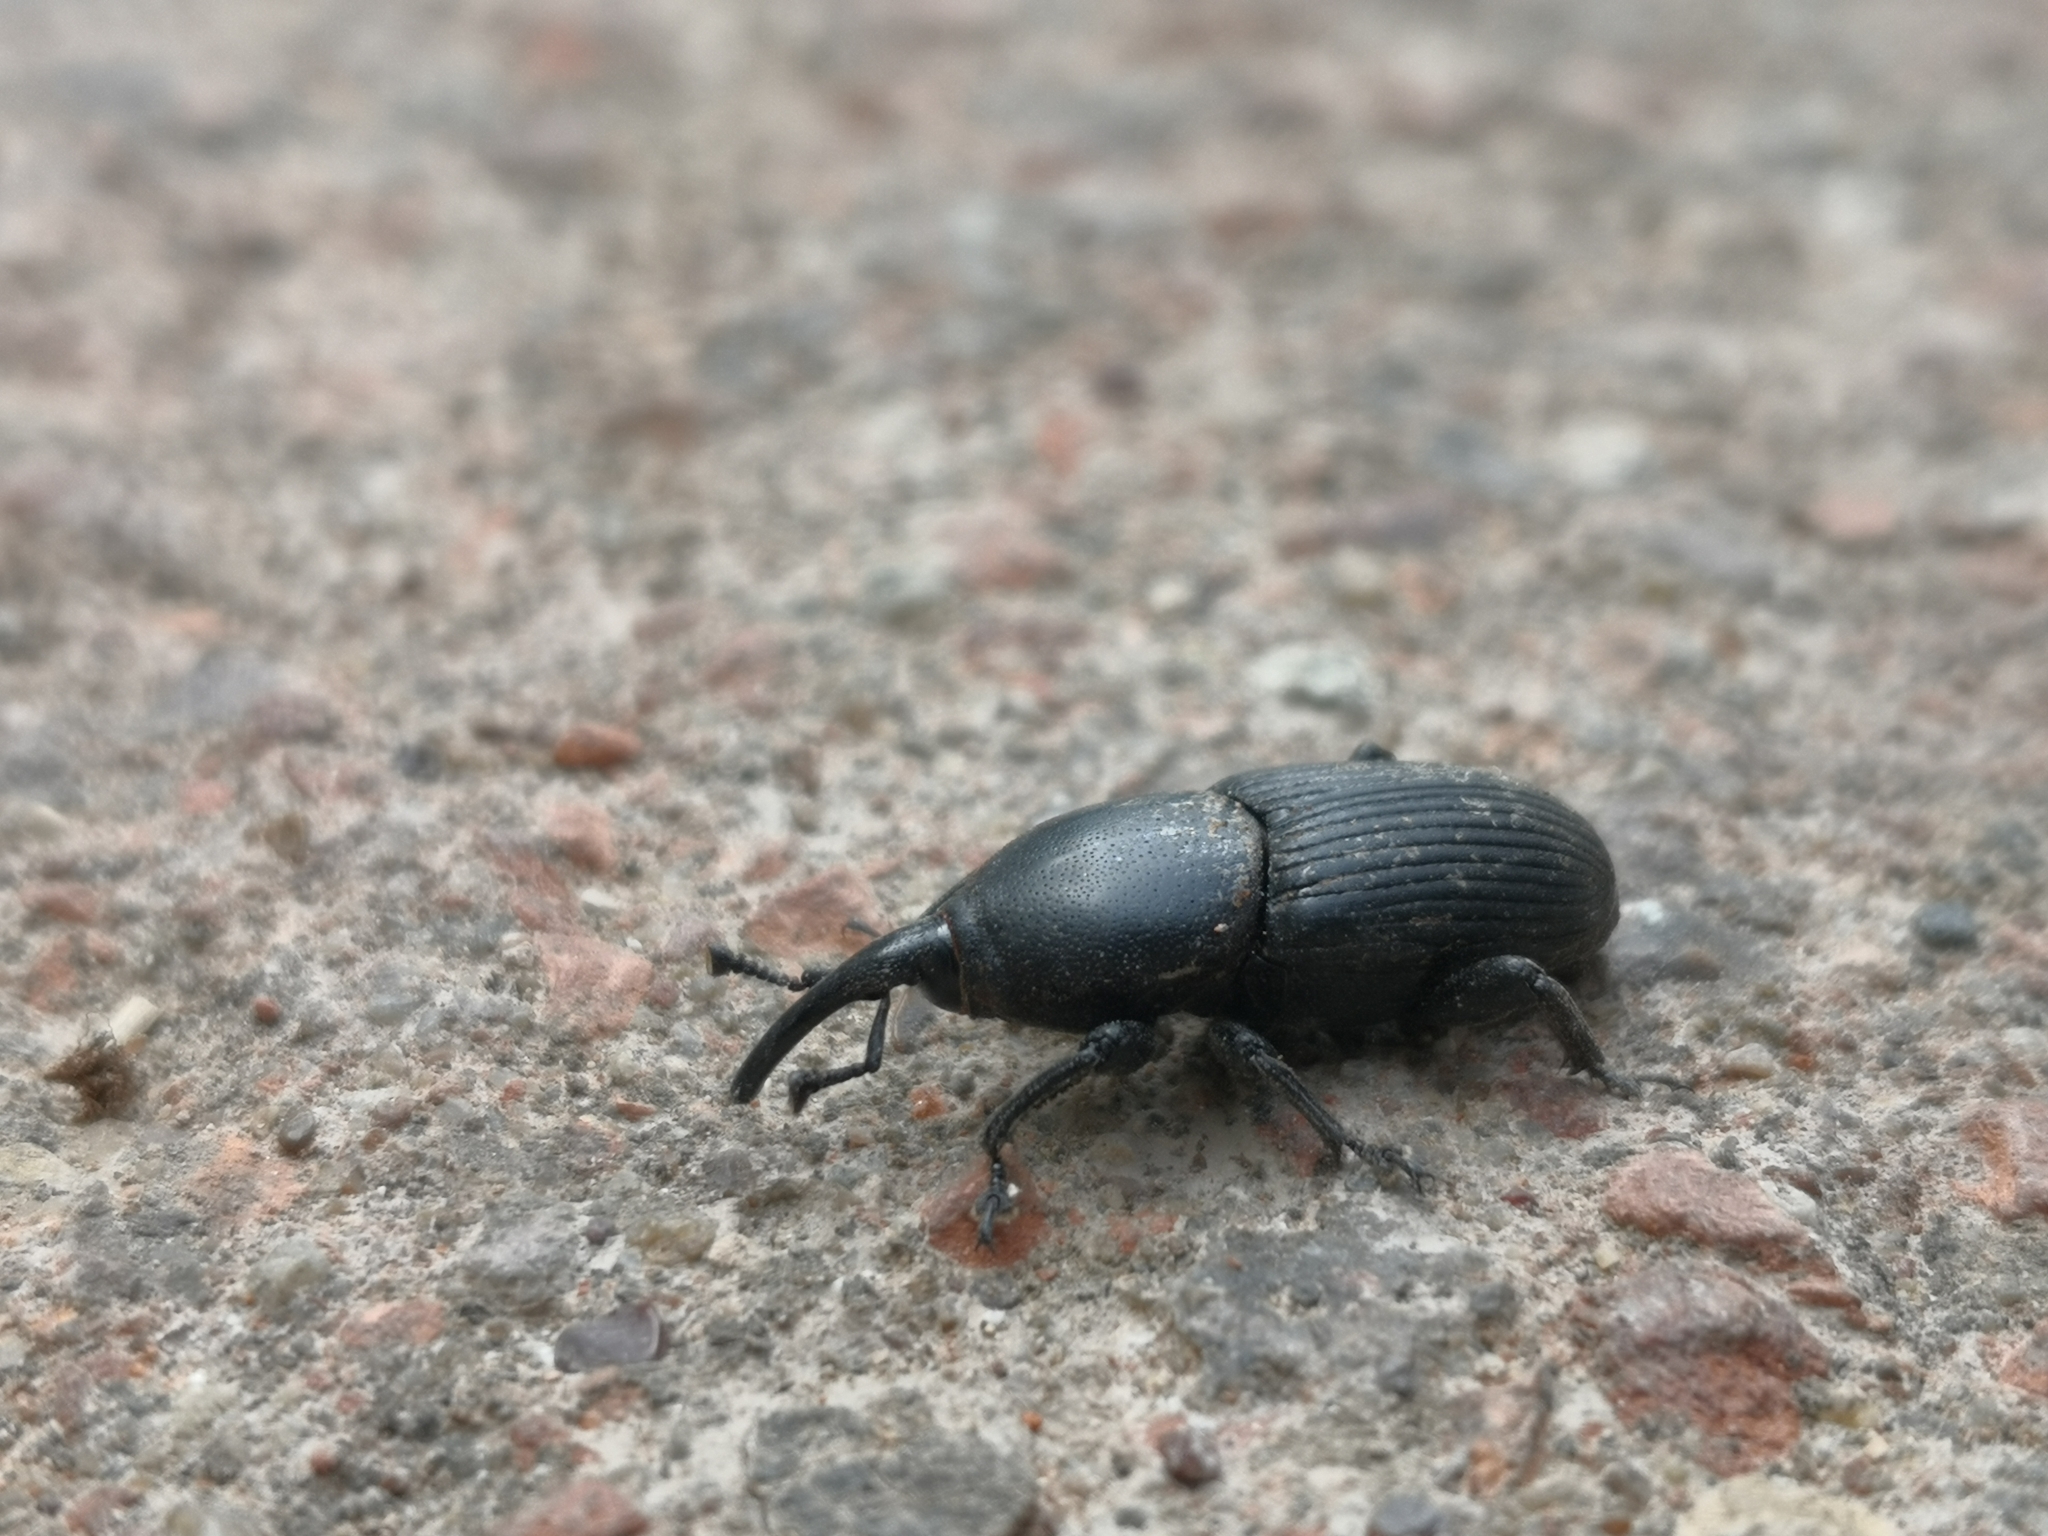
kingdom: Animalia
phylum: Arthropoda
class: Insecta
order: Coleoptera
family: Dryophthoridae
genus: Scyphophorus
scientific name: Scyphophorus acupunctatus
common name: Weevil
